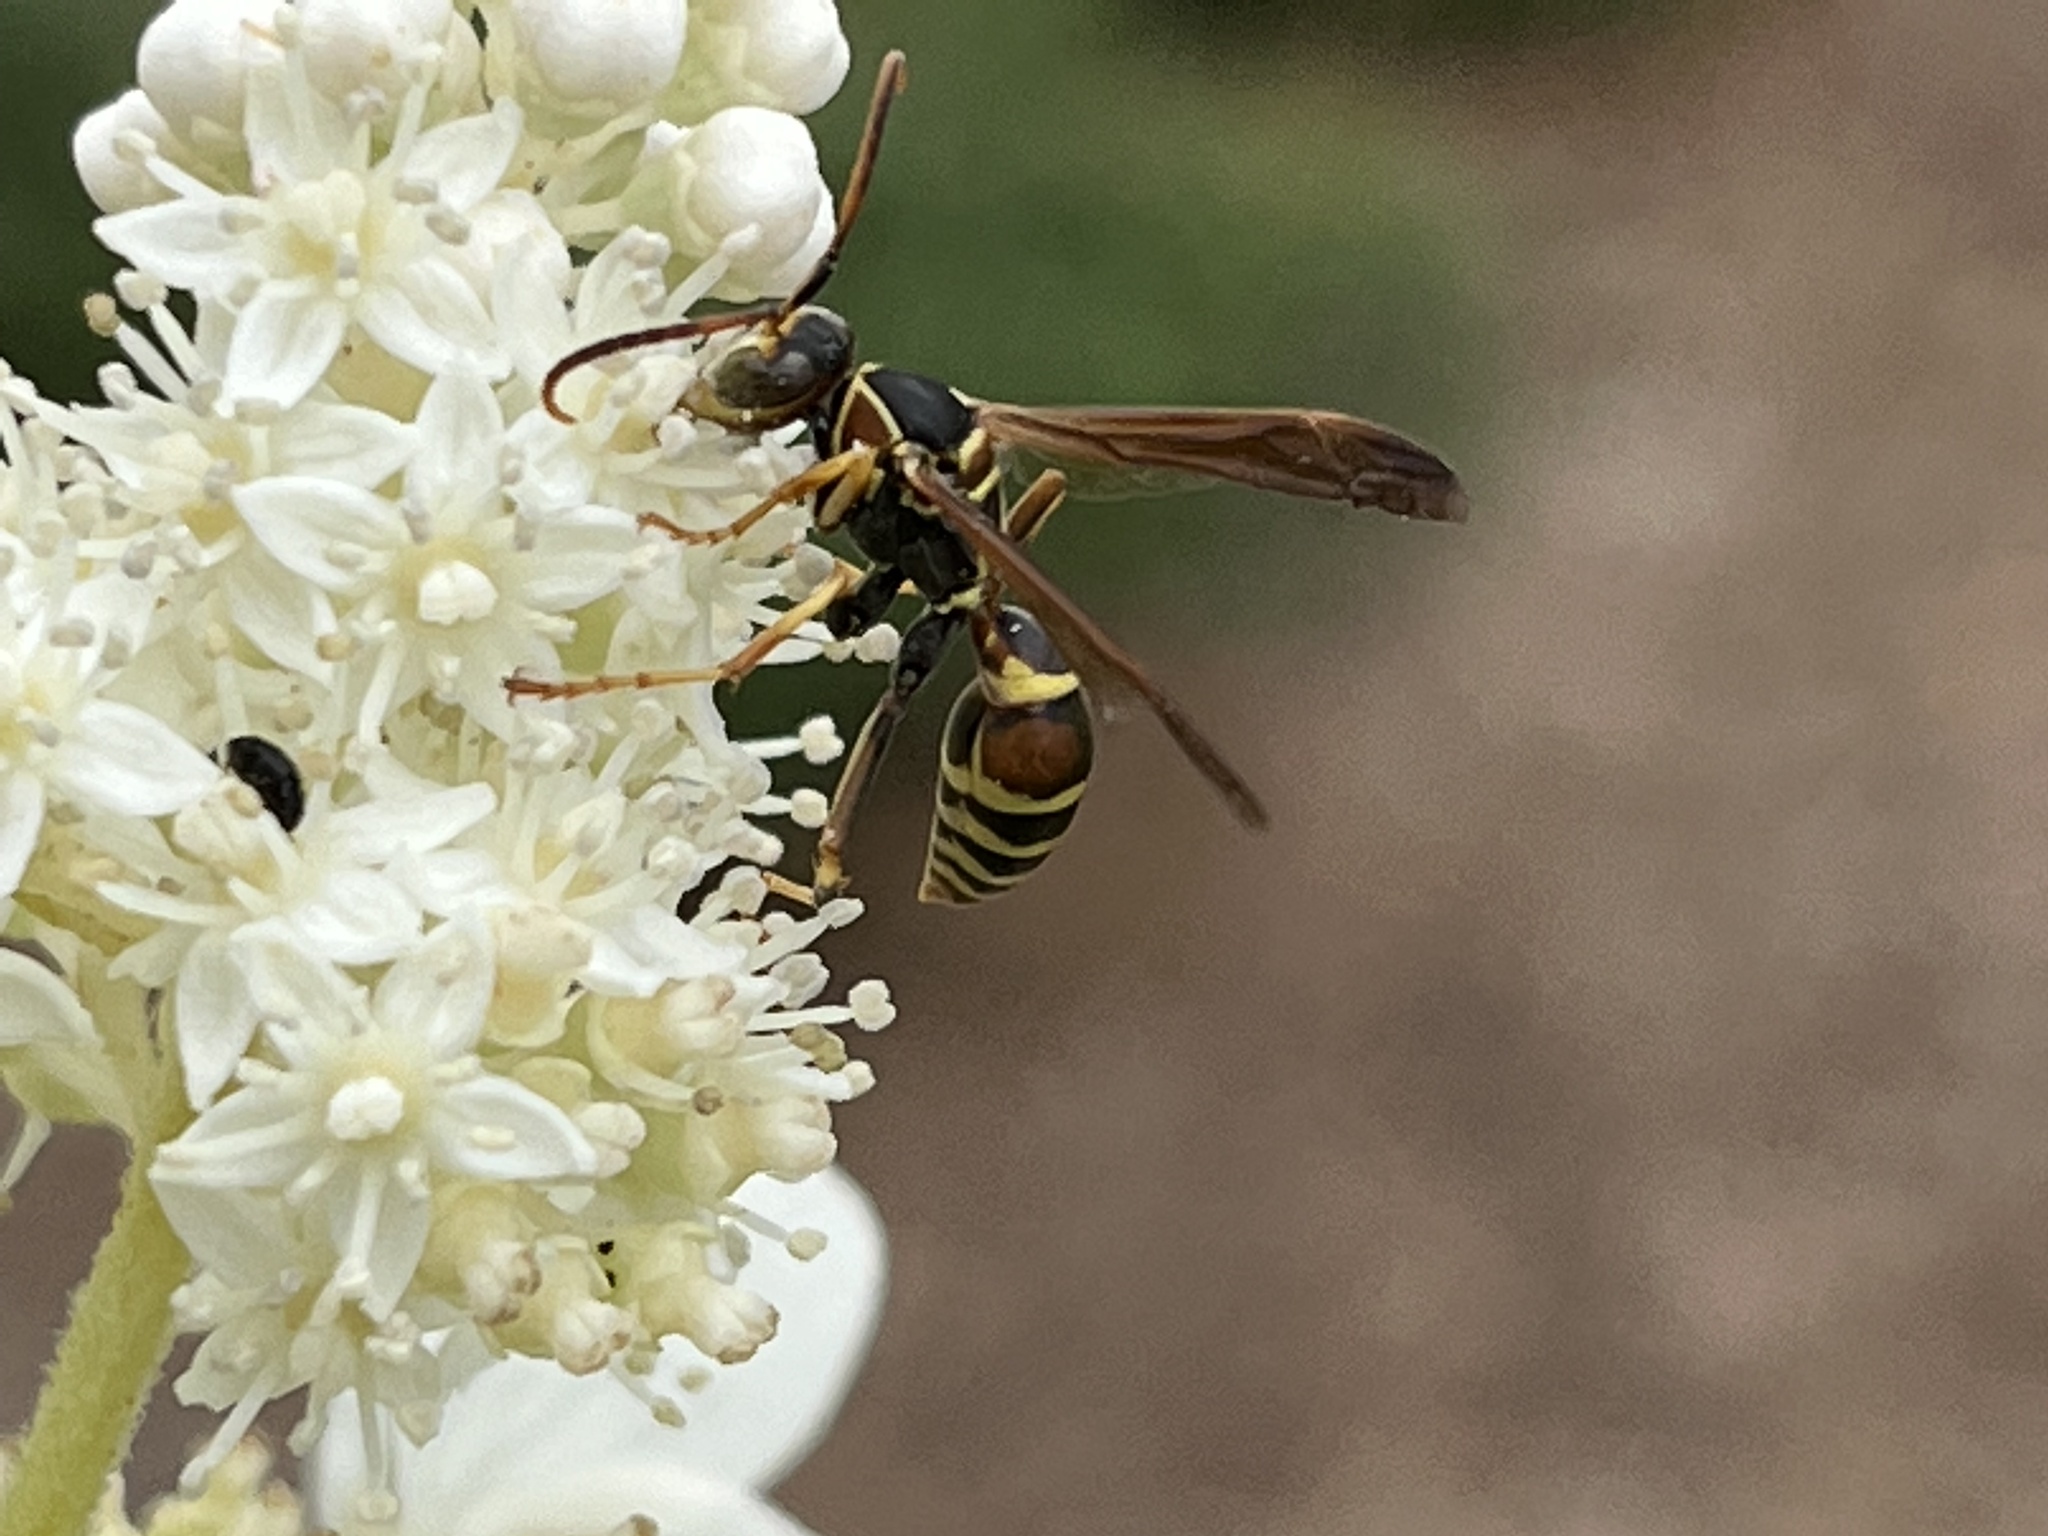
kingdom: Animalia
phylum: Arthropoda
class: Insecta
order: Hymenoptera
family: Eumenidae
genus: Polistes
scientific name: Polistes dorsalis
